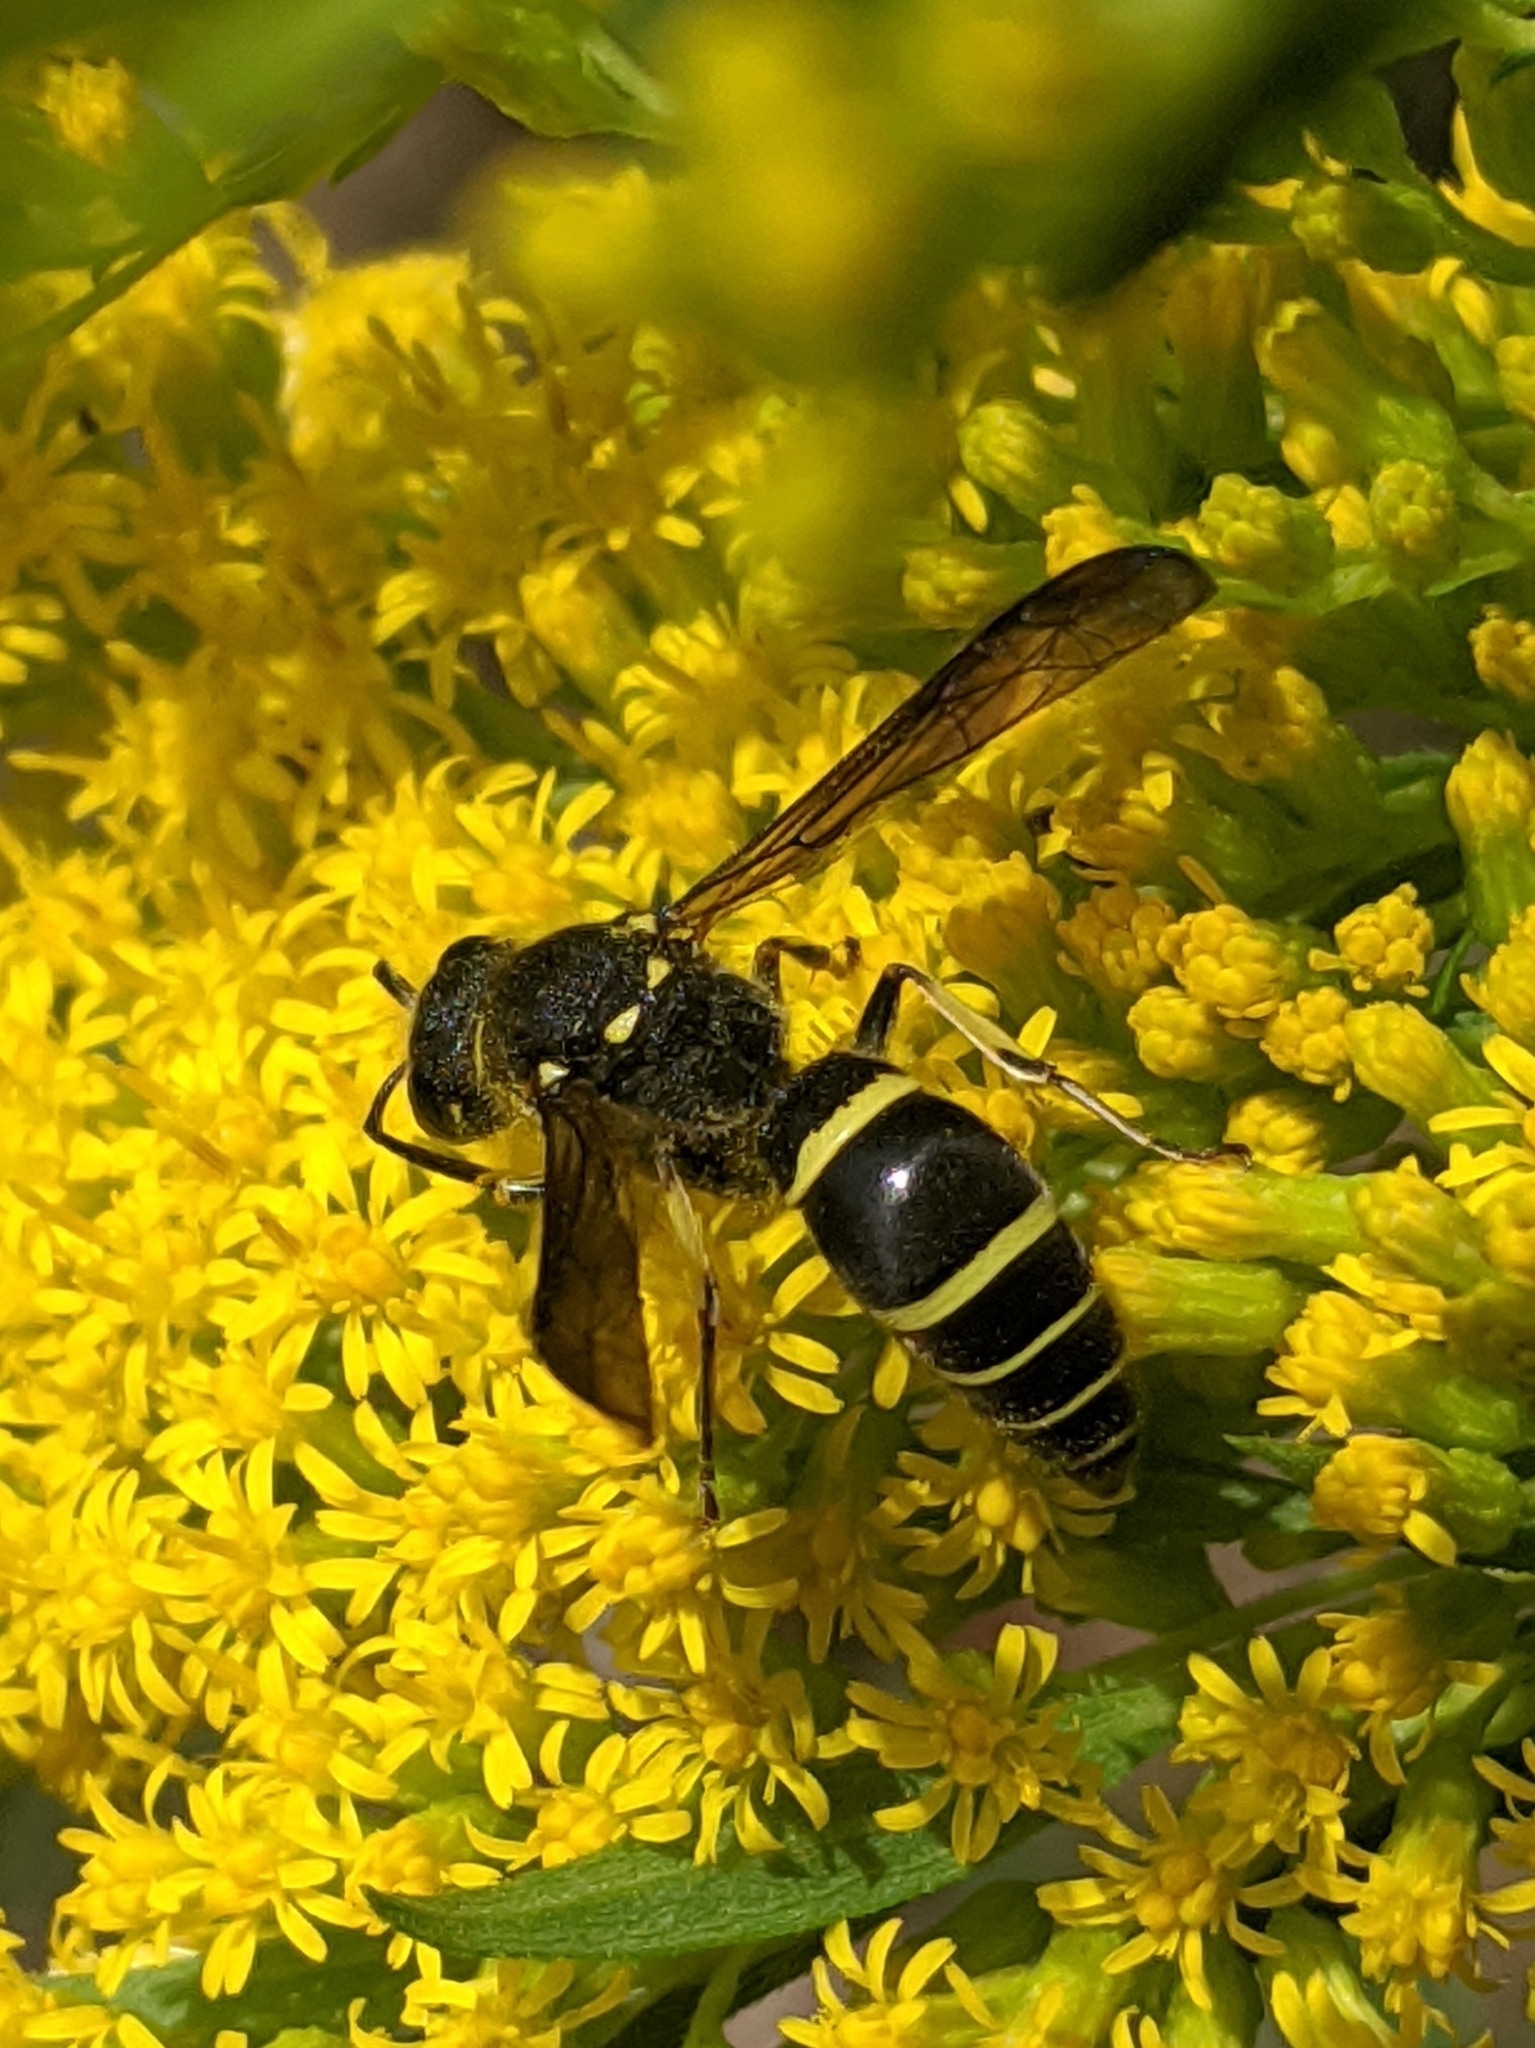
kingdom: Animalia
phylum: Arthropoda
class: Insecta
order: Hymenoptera
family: Vespidae
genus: Ancistrocerus
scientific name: Ancistrocerus
